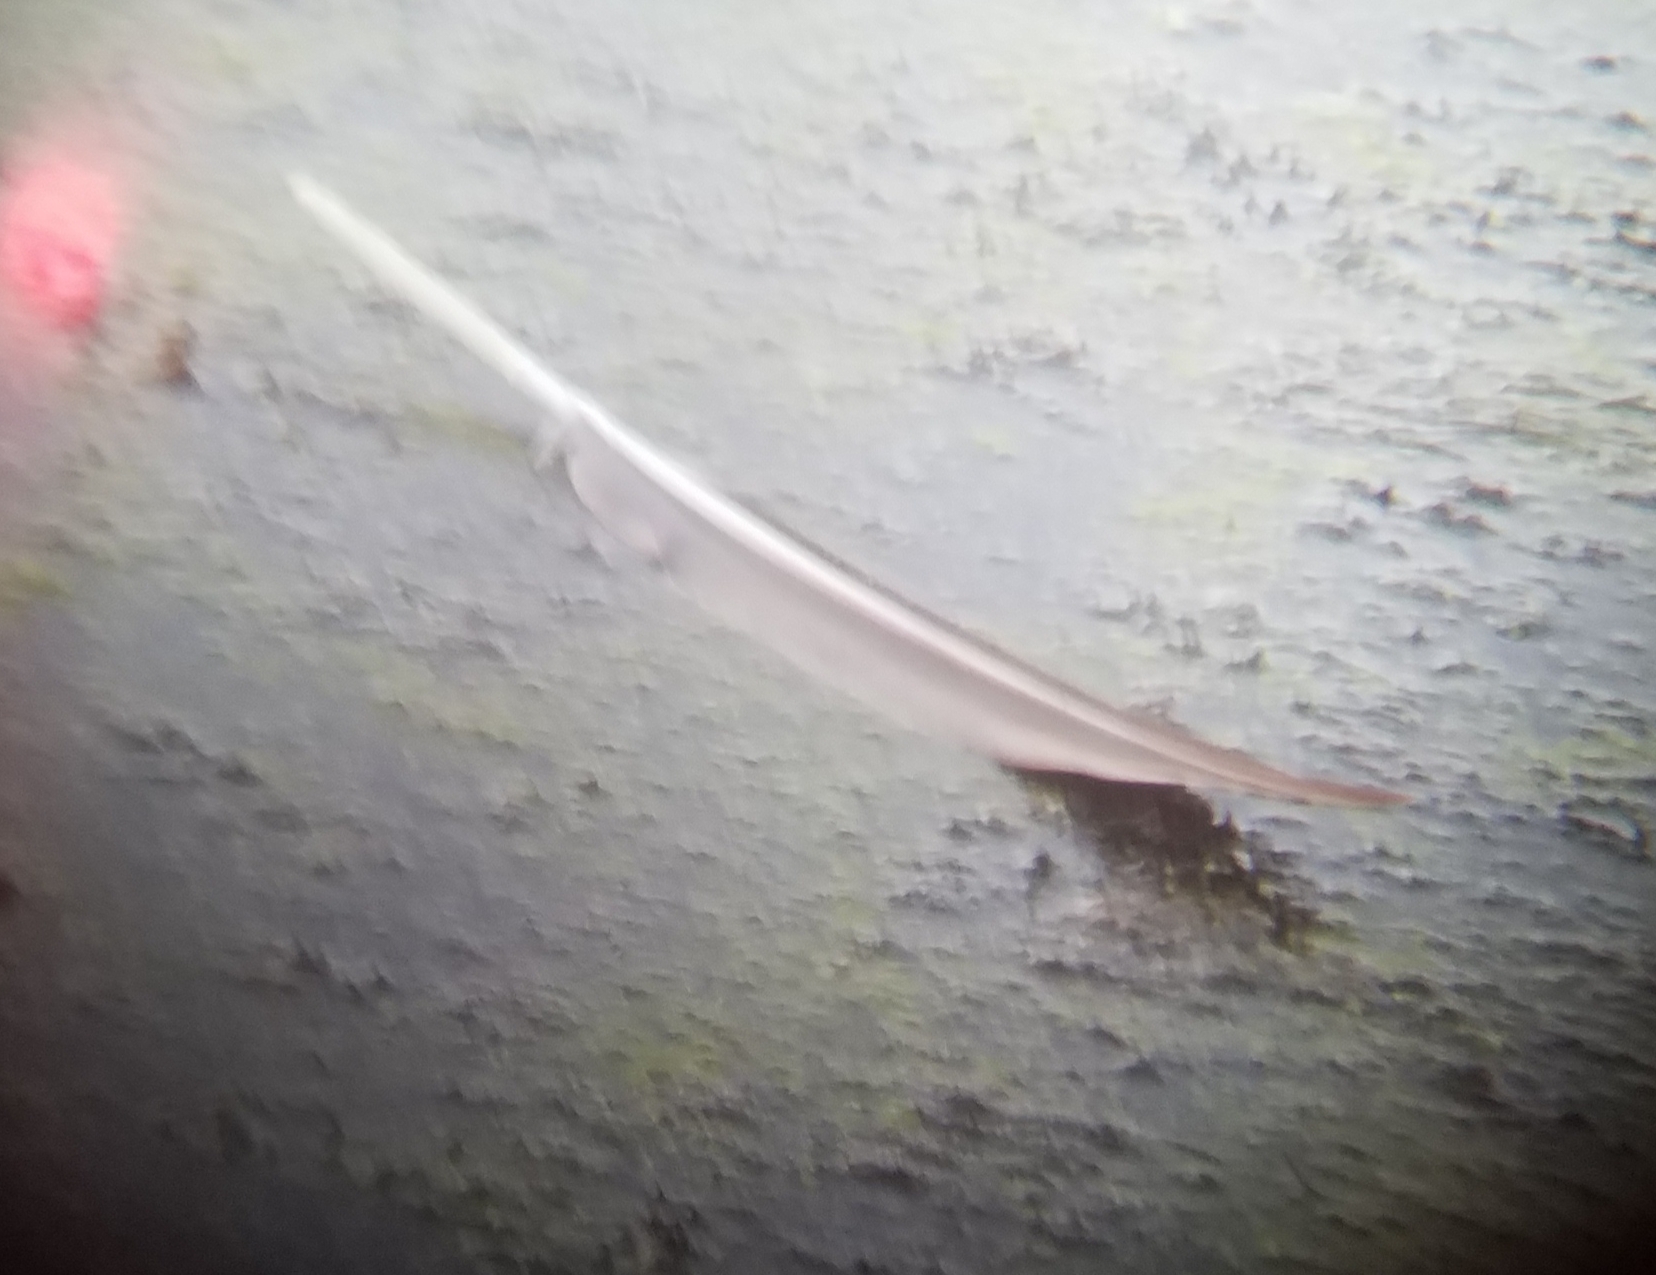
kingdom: Animalia
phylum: Chordata
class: Aves
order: Anseriformes
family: Anatidae
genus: Branta
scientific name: Branta canadensis
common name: Canada goose
